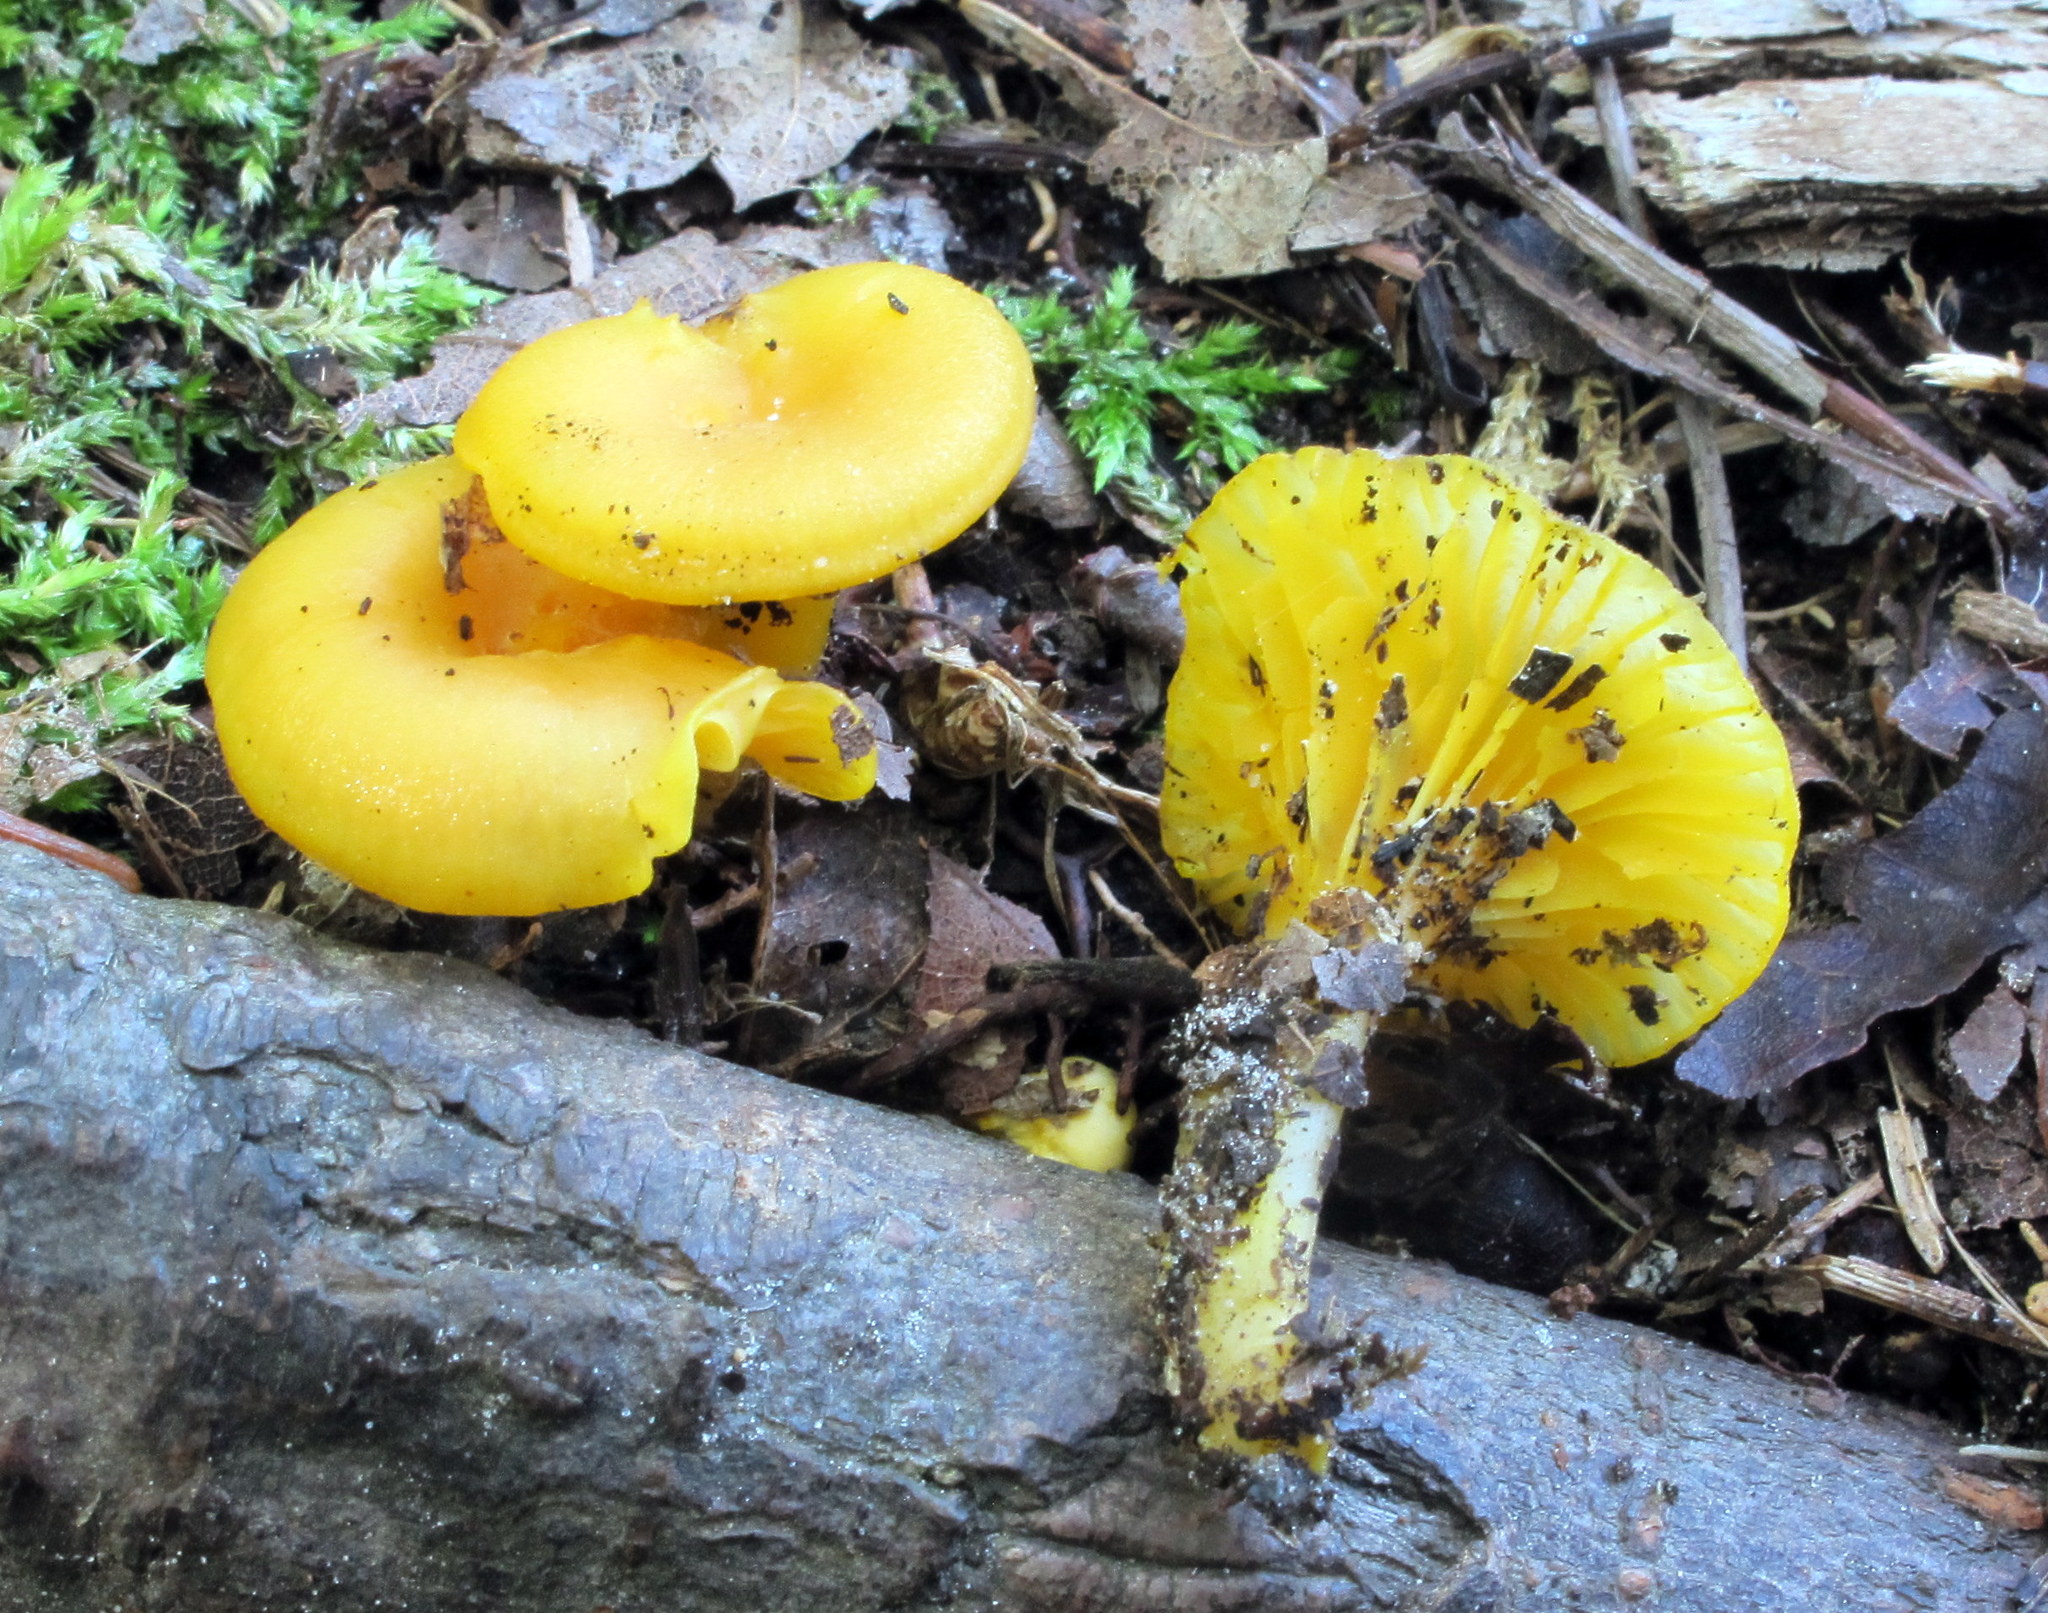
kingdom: Fungi
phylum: Basidiomycota
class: Agaricomycetes
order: Agaricales
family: Hygrophoraceae
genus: Gloioxanthomyces
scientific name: Gloioxanthomyces nitidus
